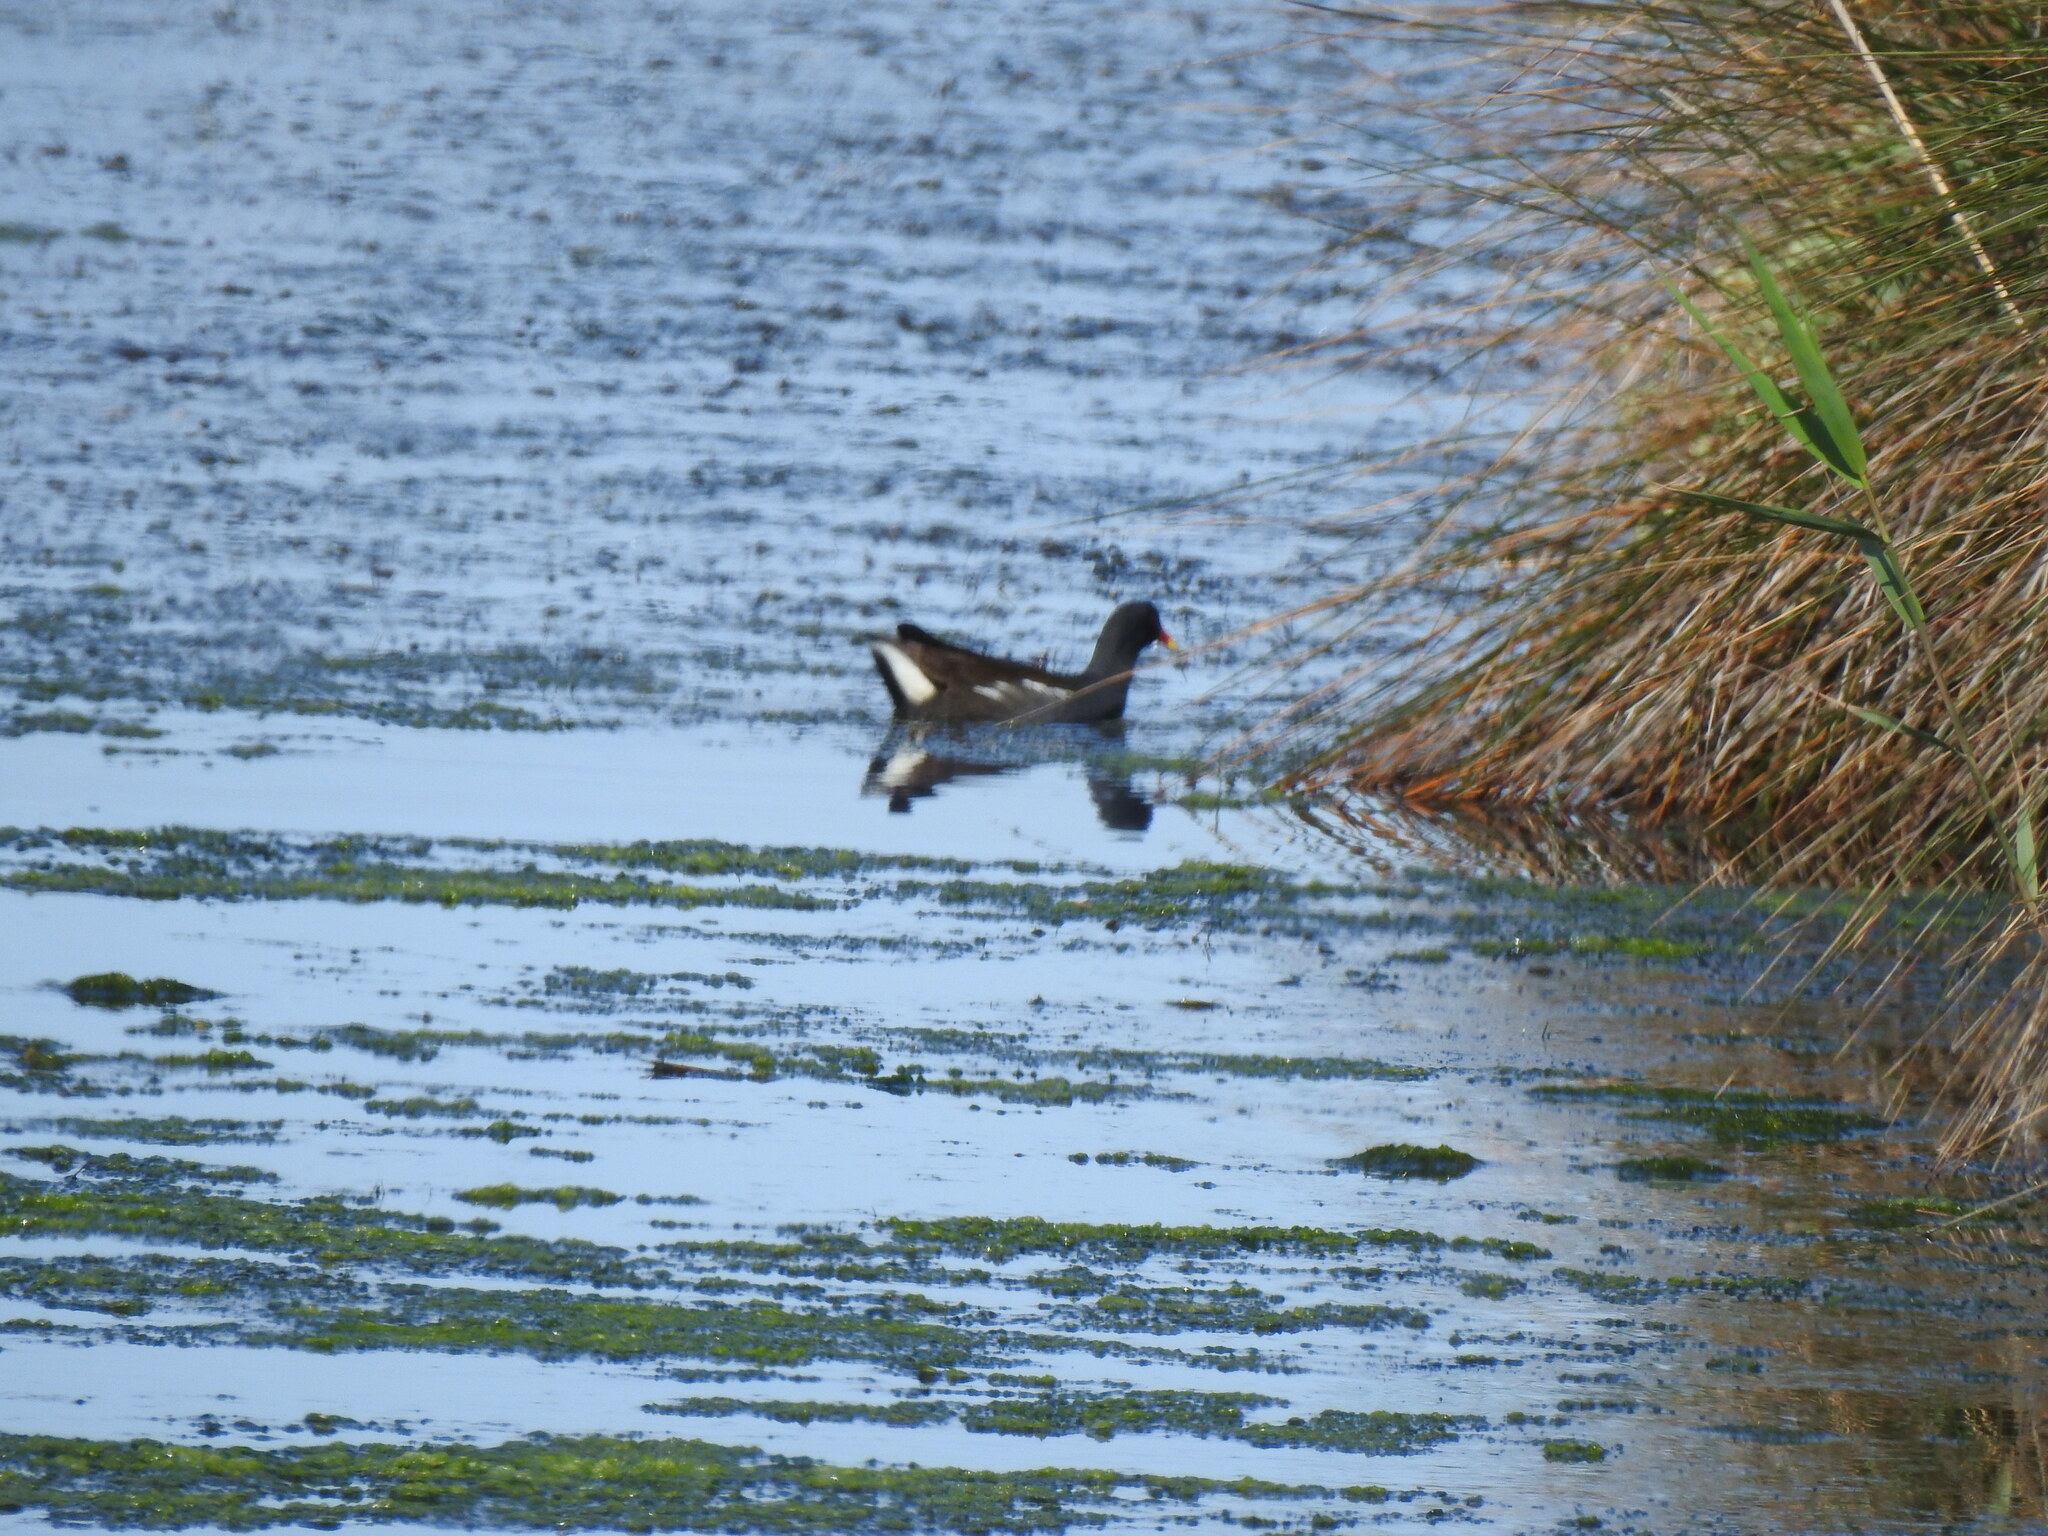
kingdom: Animalia
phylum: Chordata
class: Aves
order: Gruiformes
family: Rallidae
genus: Gallinula
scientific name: Gallinula chloropus
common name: Common moorhen
